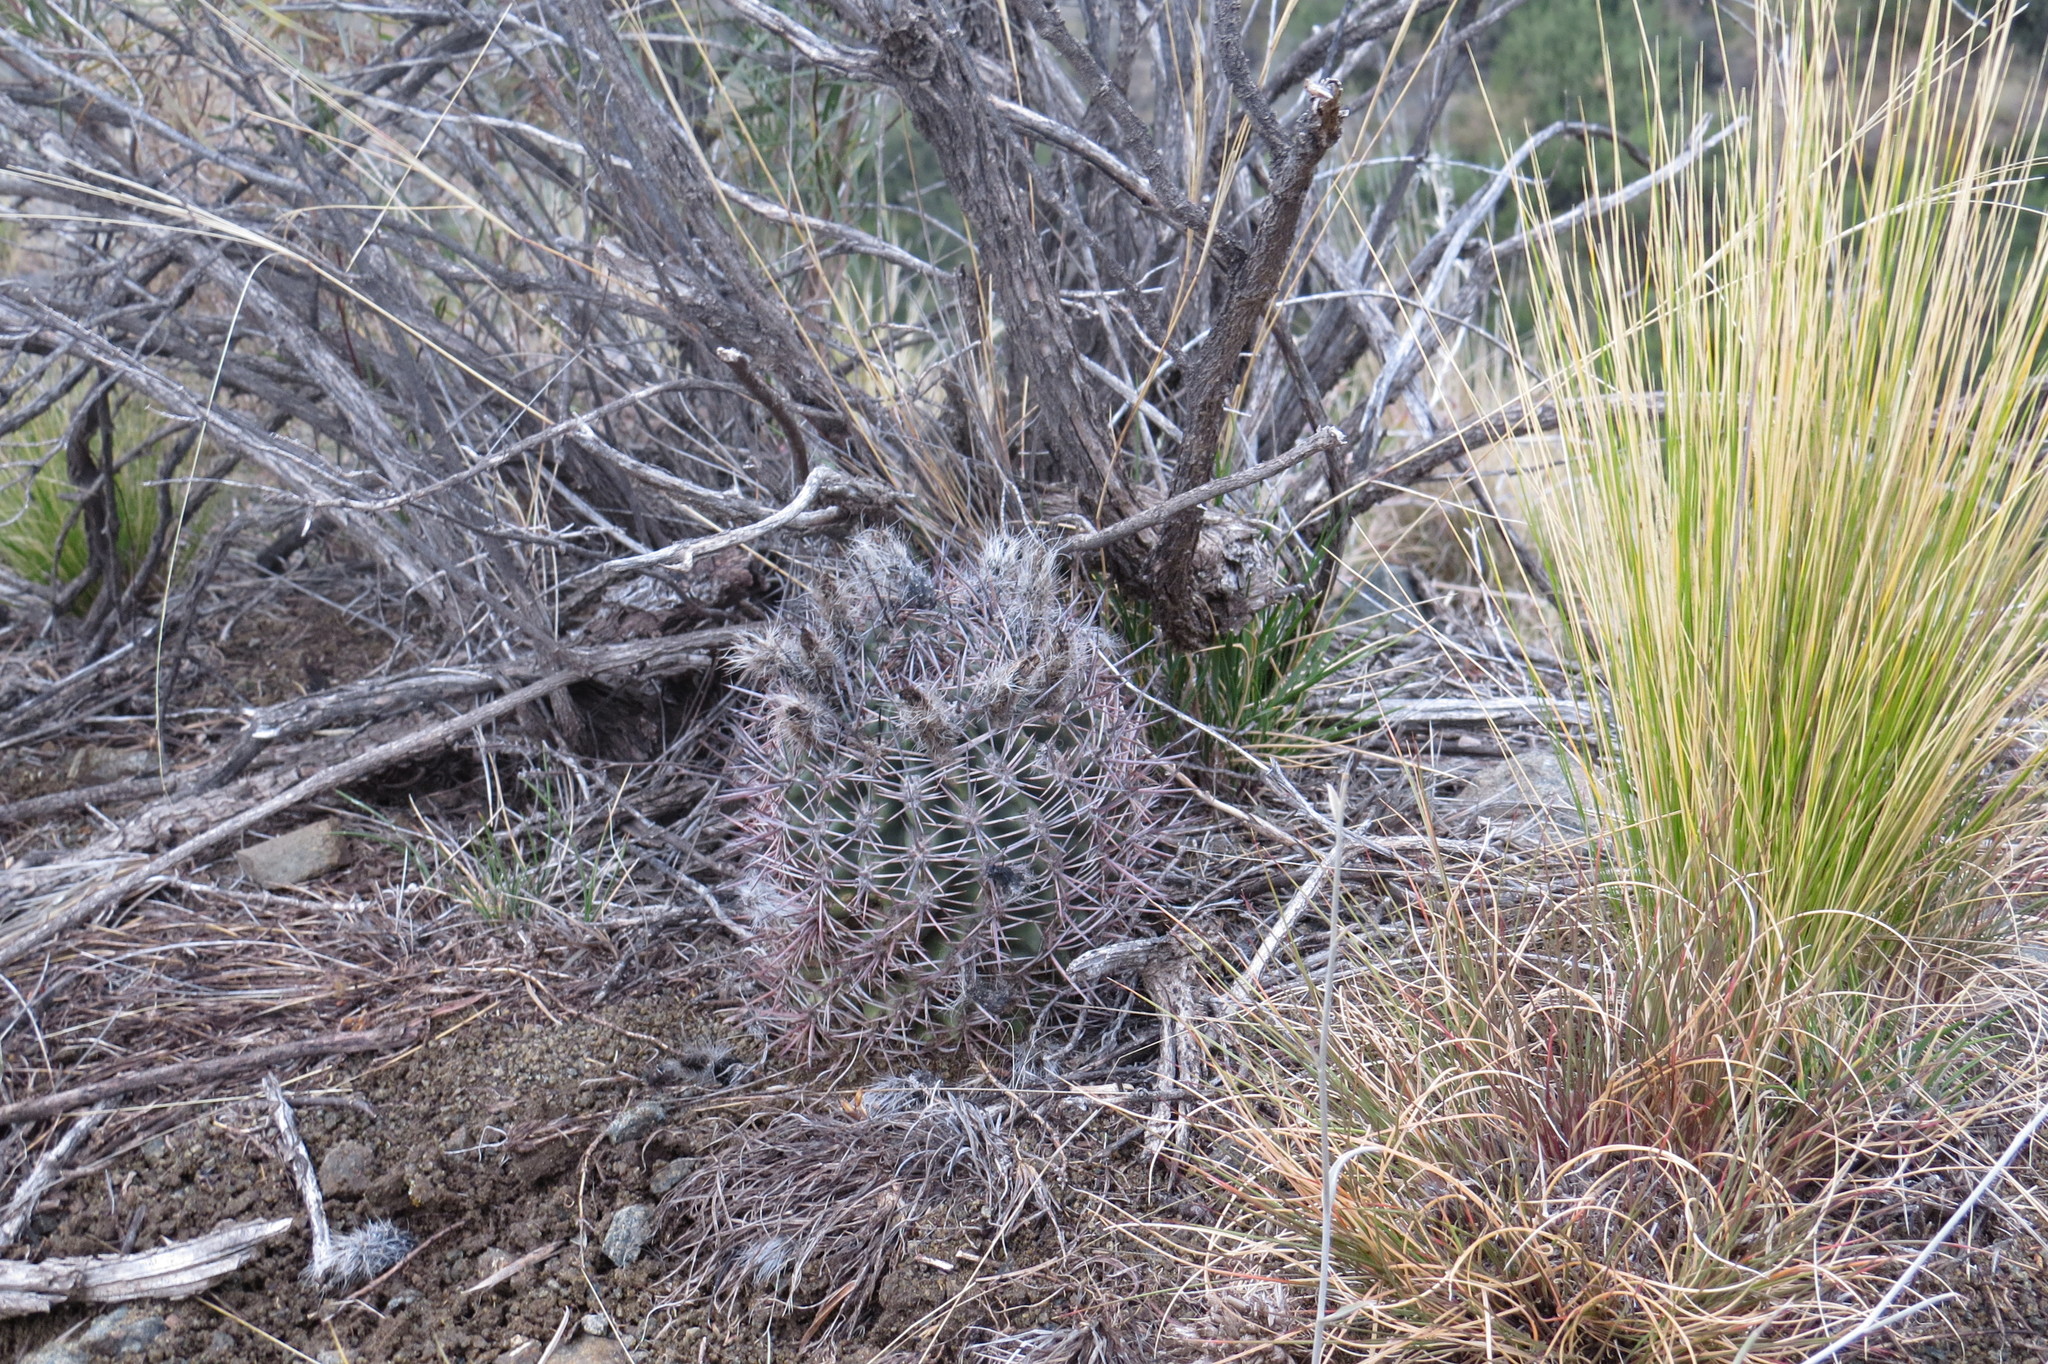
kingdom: Plantae
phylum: Tracheophyta
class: Magnoliopsida
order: Caryophyllales
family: Cactaceae
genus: Eriosyce
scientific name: Eriosyce strausiana
